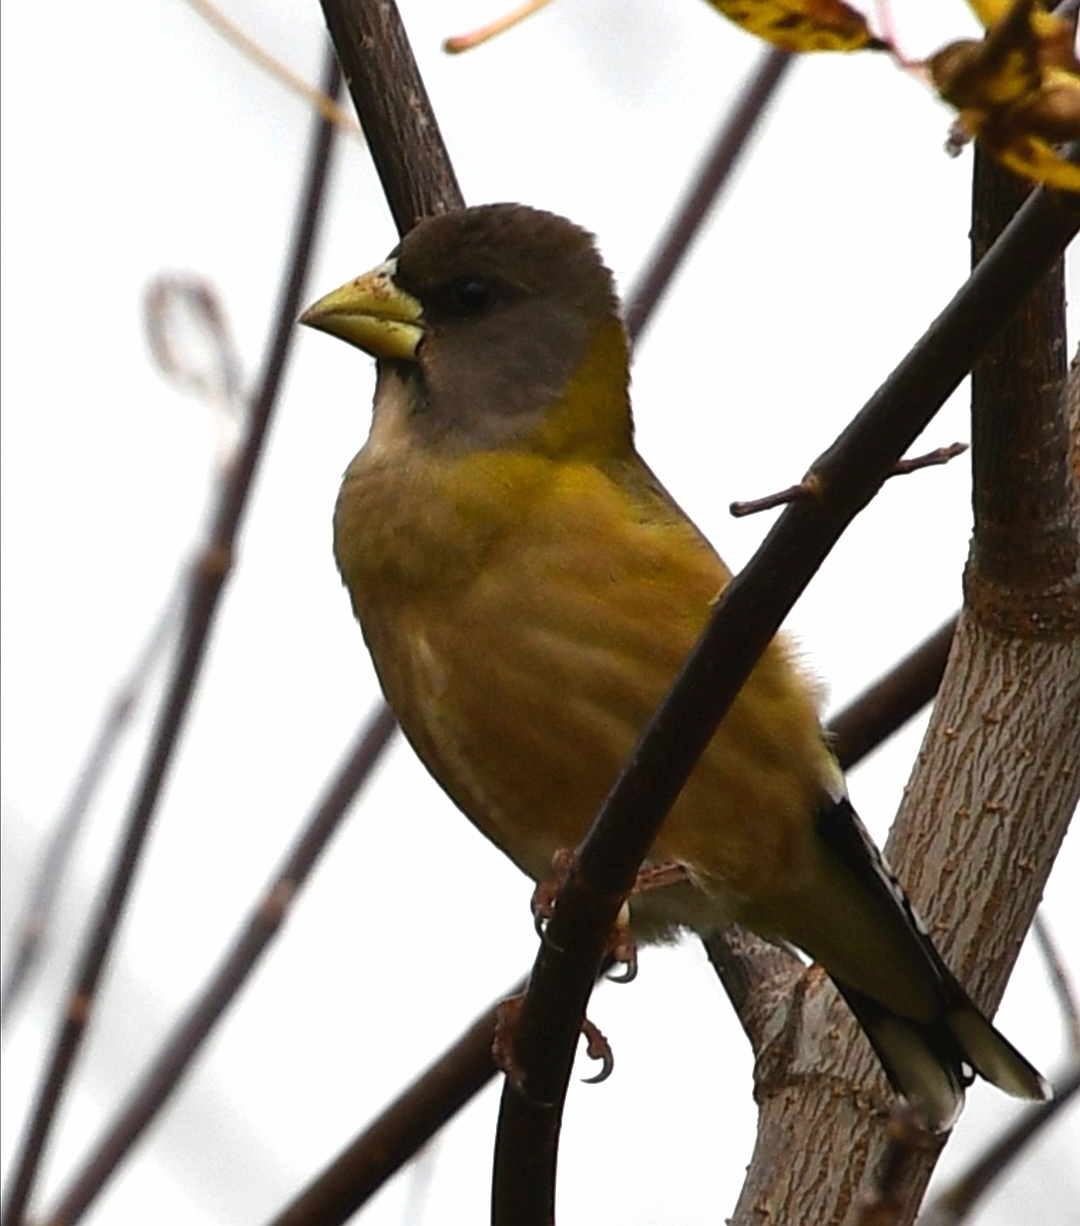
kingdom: Animalia
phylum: Chordata
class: Aves
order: Passeriformes
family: Fringillidae
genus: Hesperiphona
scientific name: Hesperiphona vespertina
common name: Evening grosbeak
